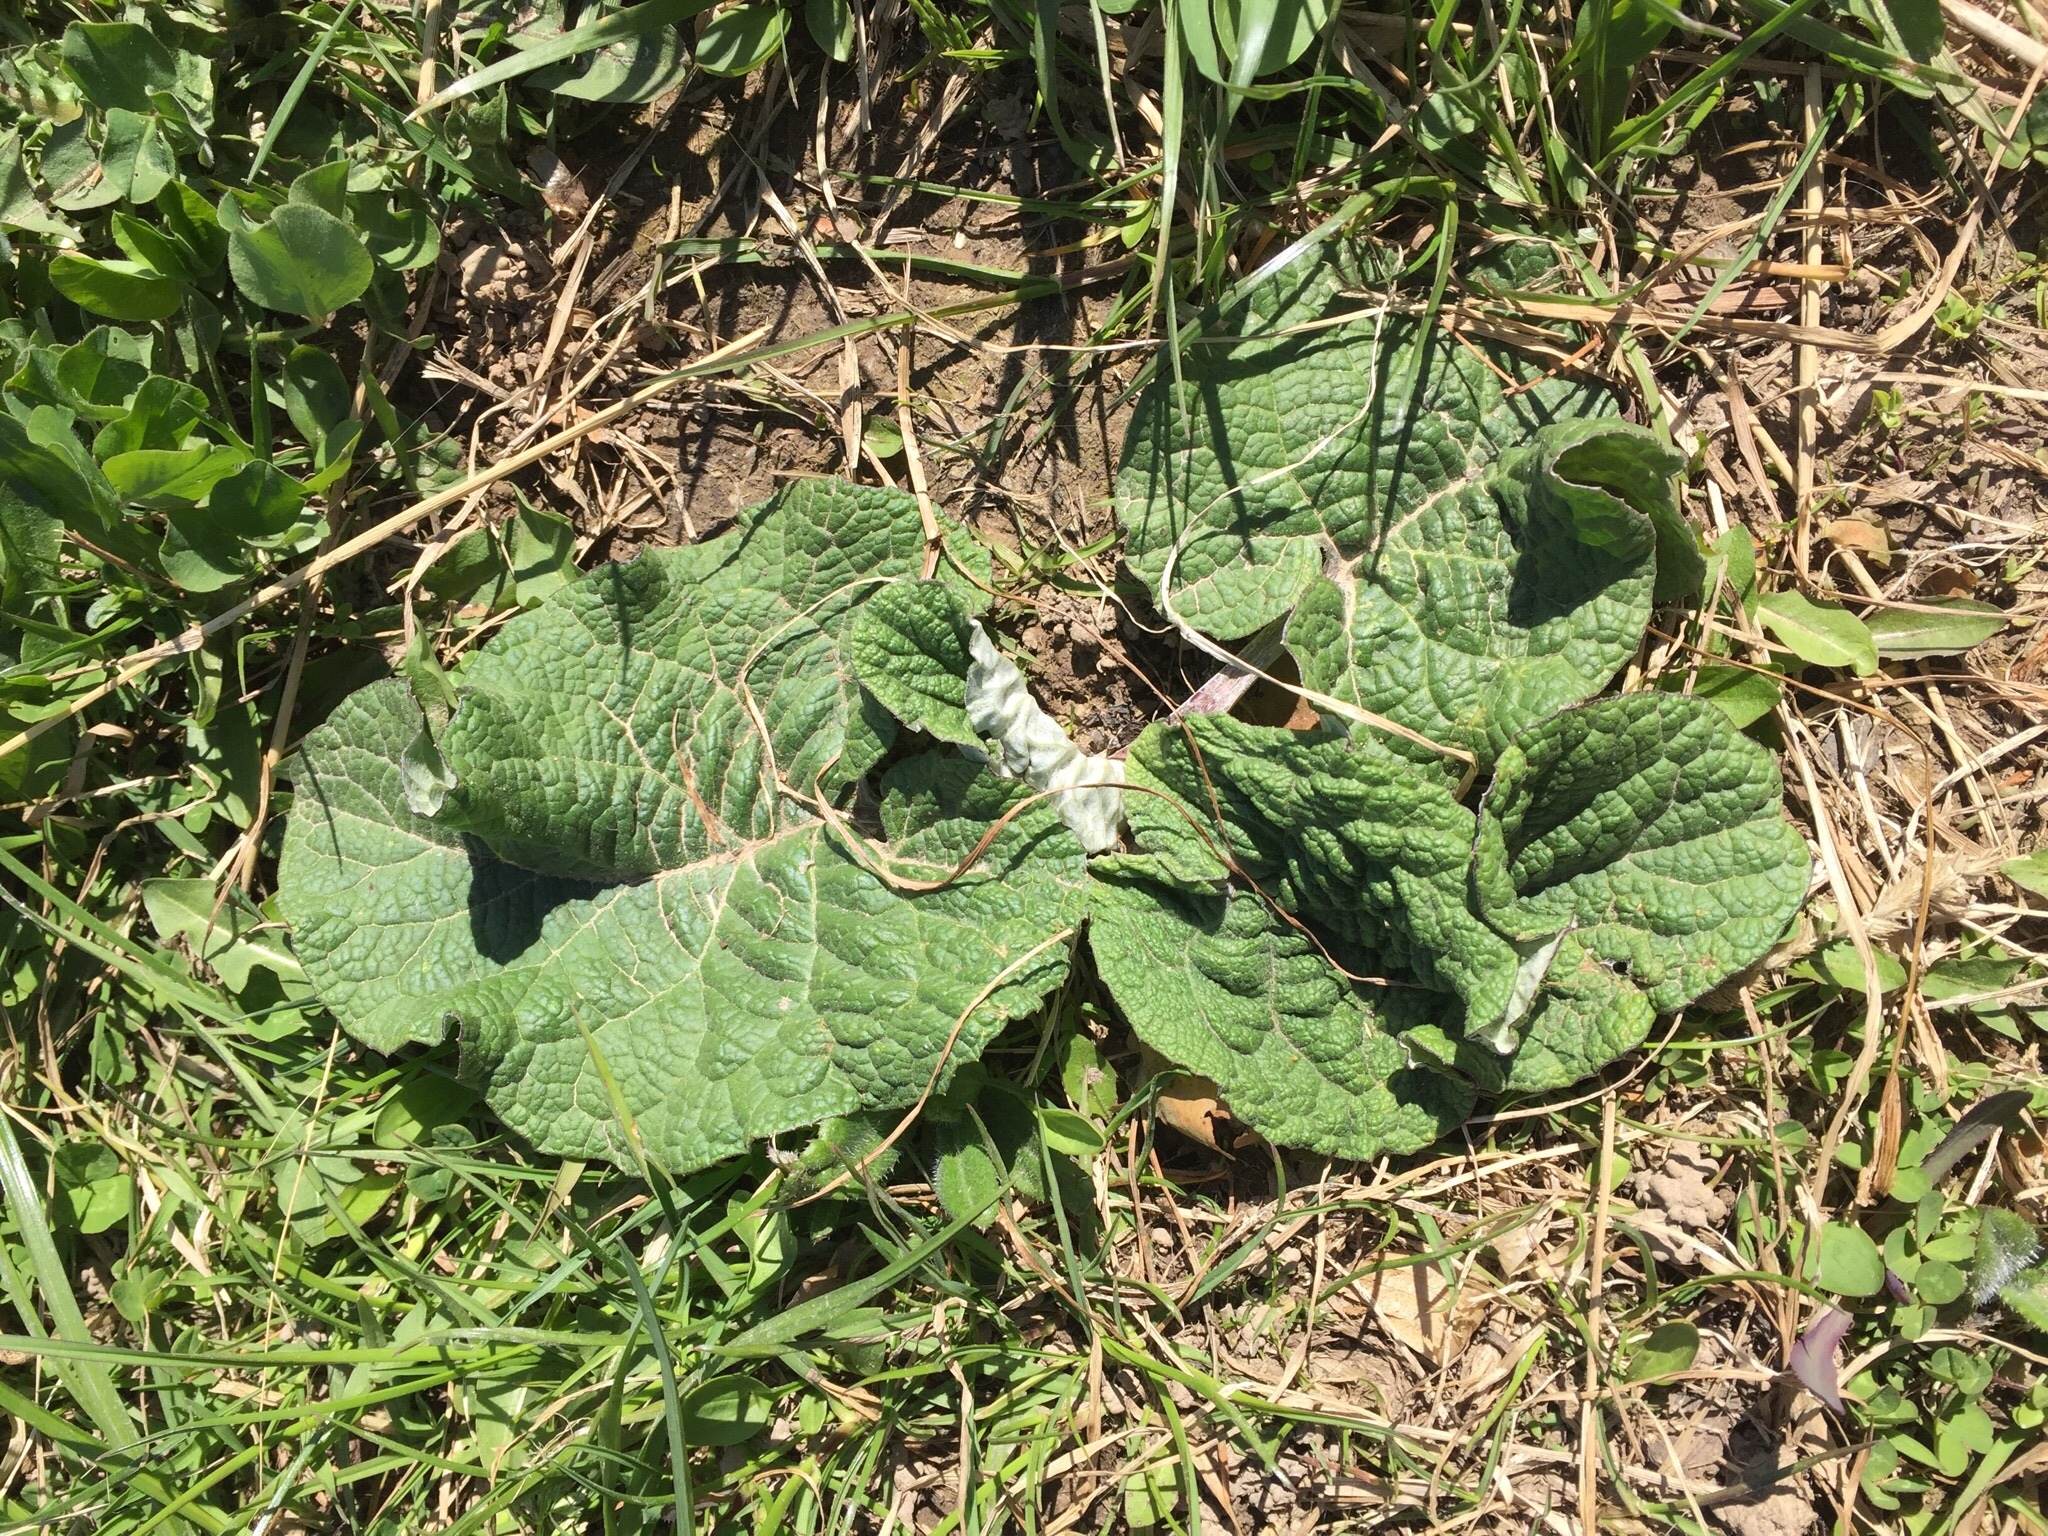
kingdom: Plantae
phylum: Tracheophyta
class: Magnoliopsida
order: Asterales
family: Asteraceae
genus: Arctium
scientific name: Arctium
